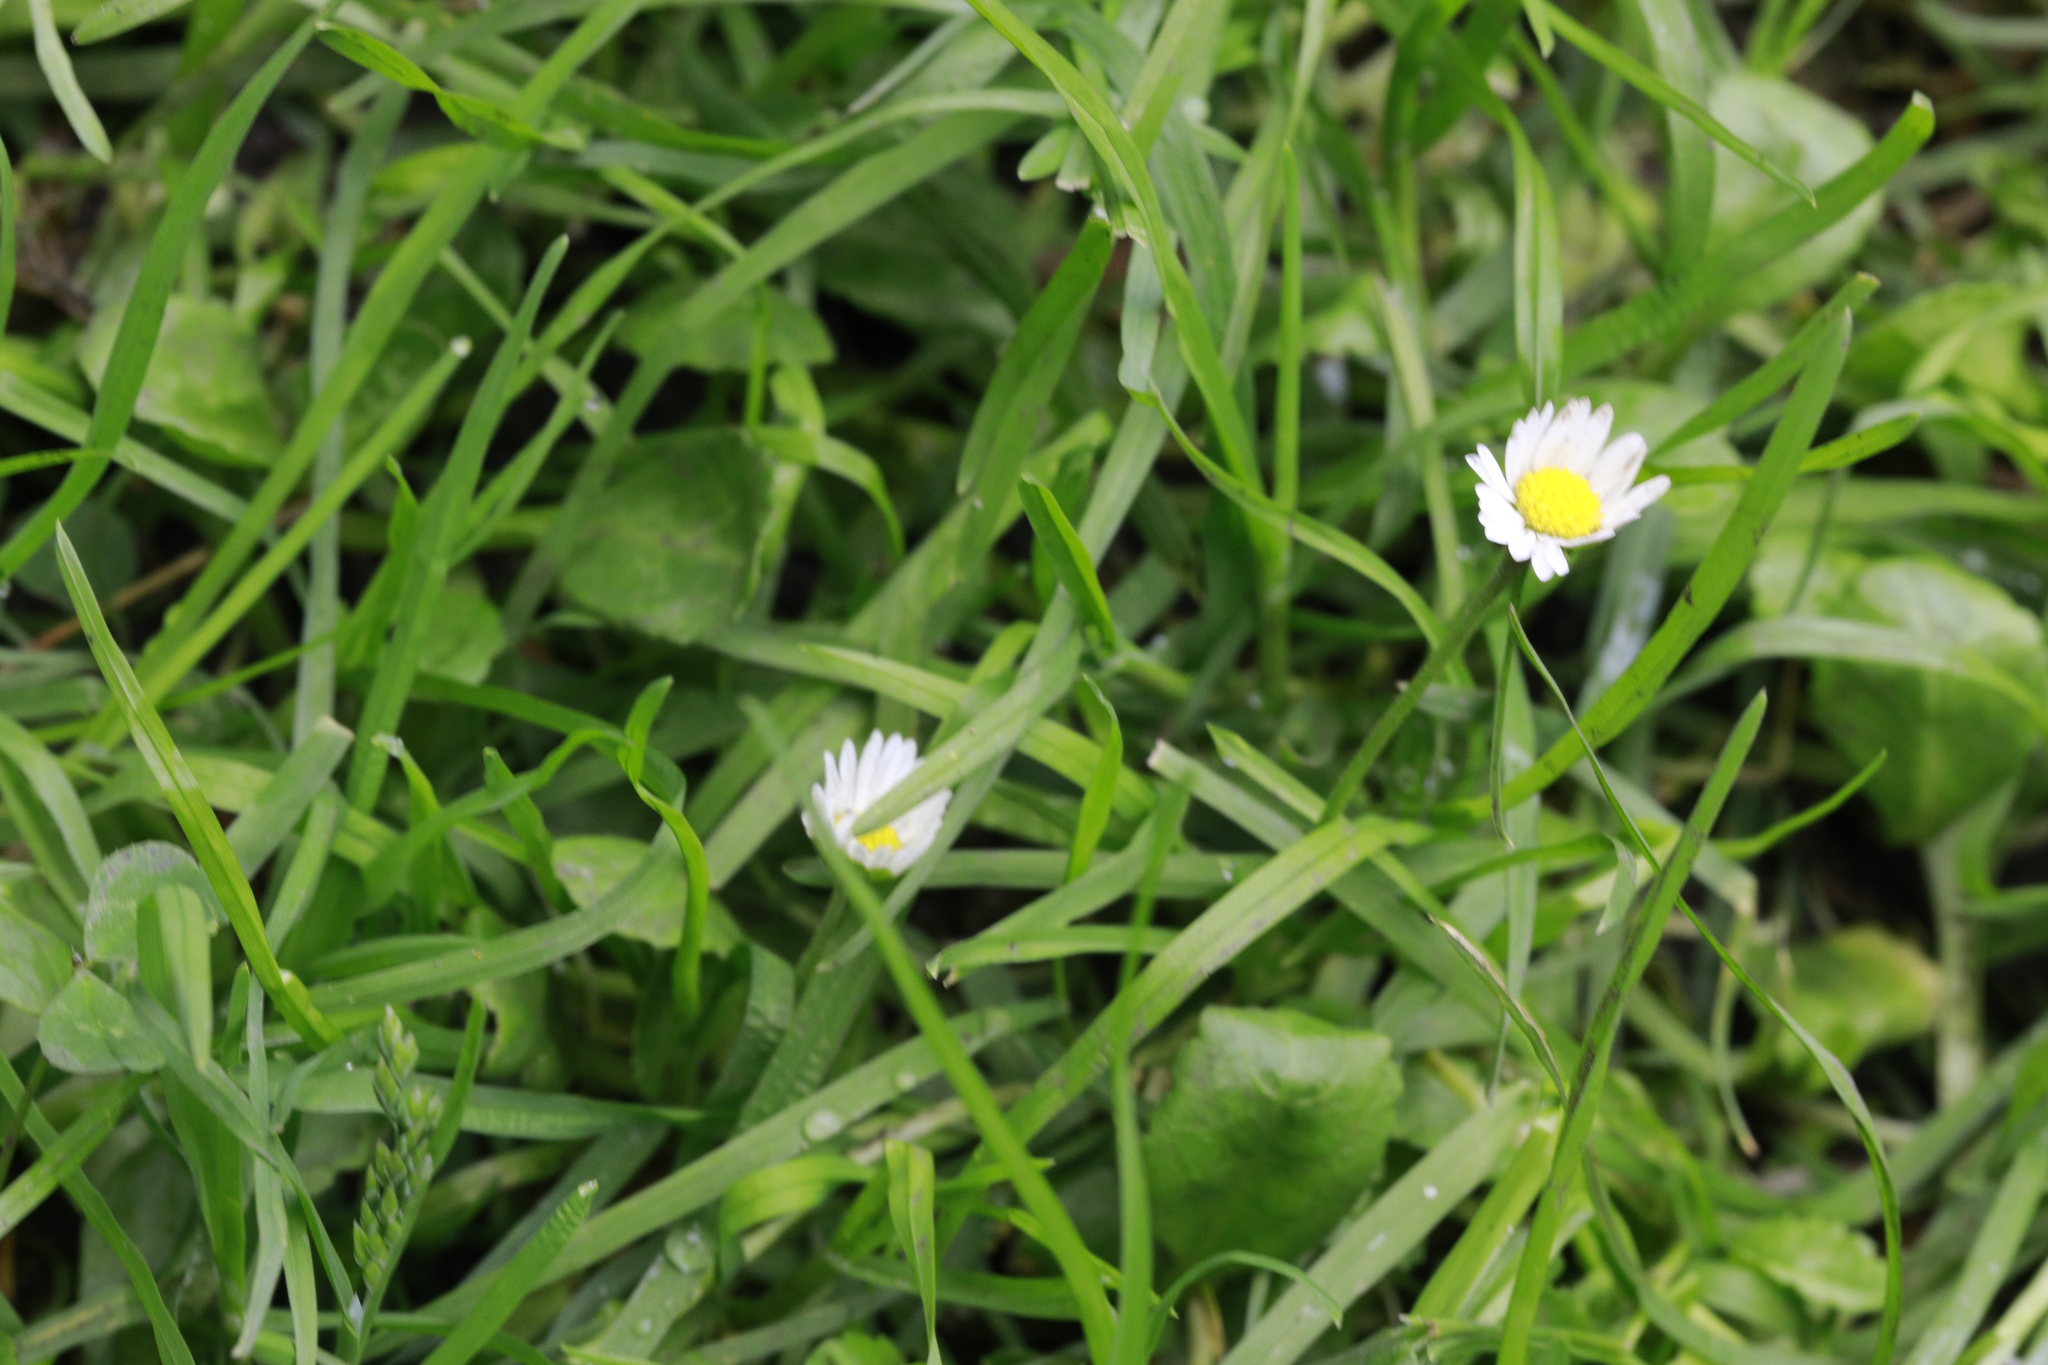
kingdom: Plantae
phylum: Tracheophyta
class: Magnoliopsida
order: Asterales
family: Asteraceae
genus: Bellis
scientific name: Bellis perennis
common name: Lawndaisy
